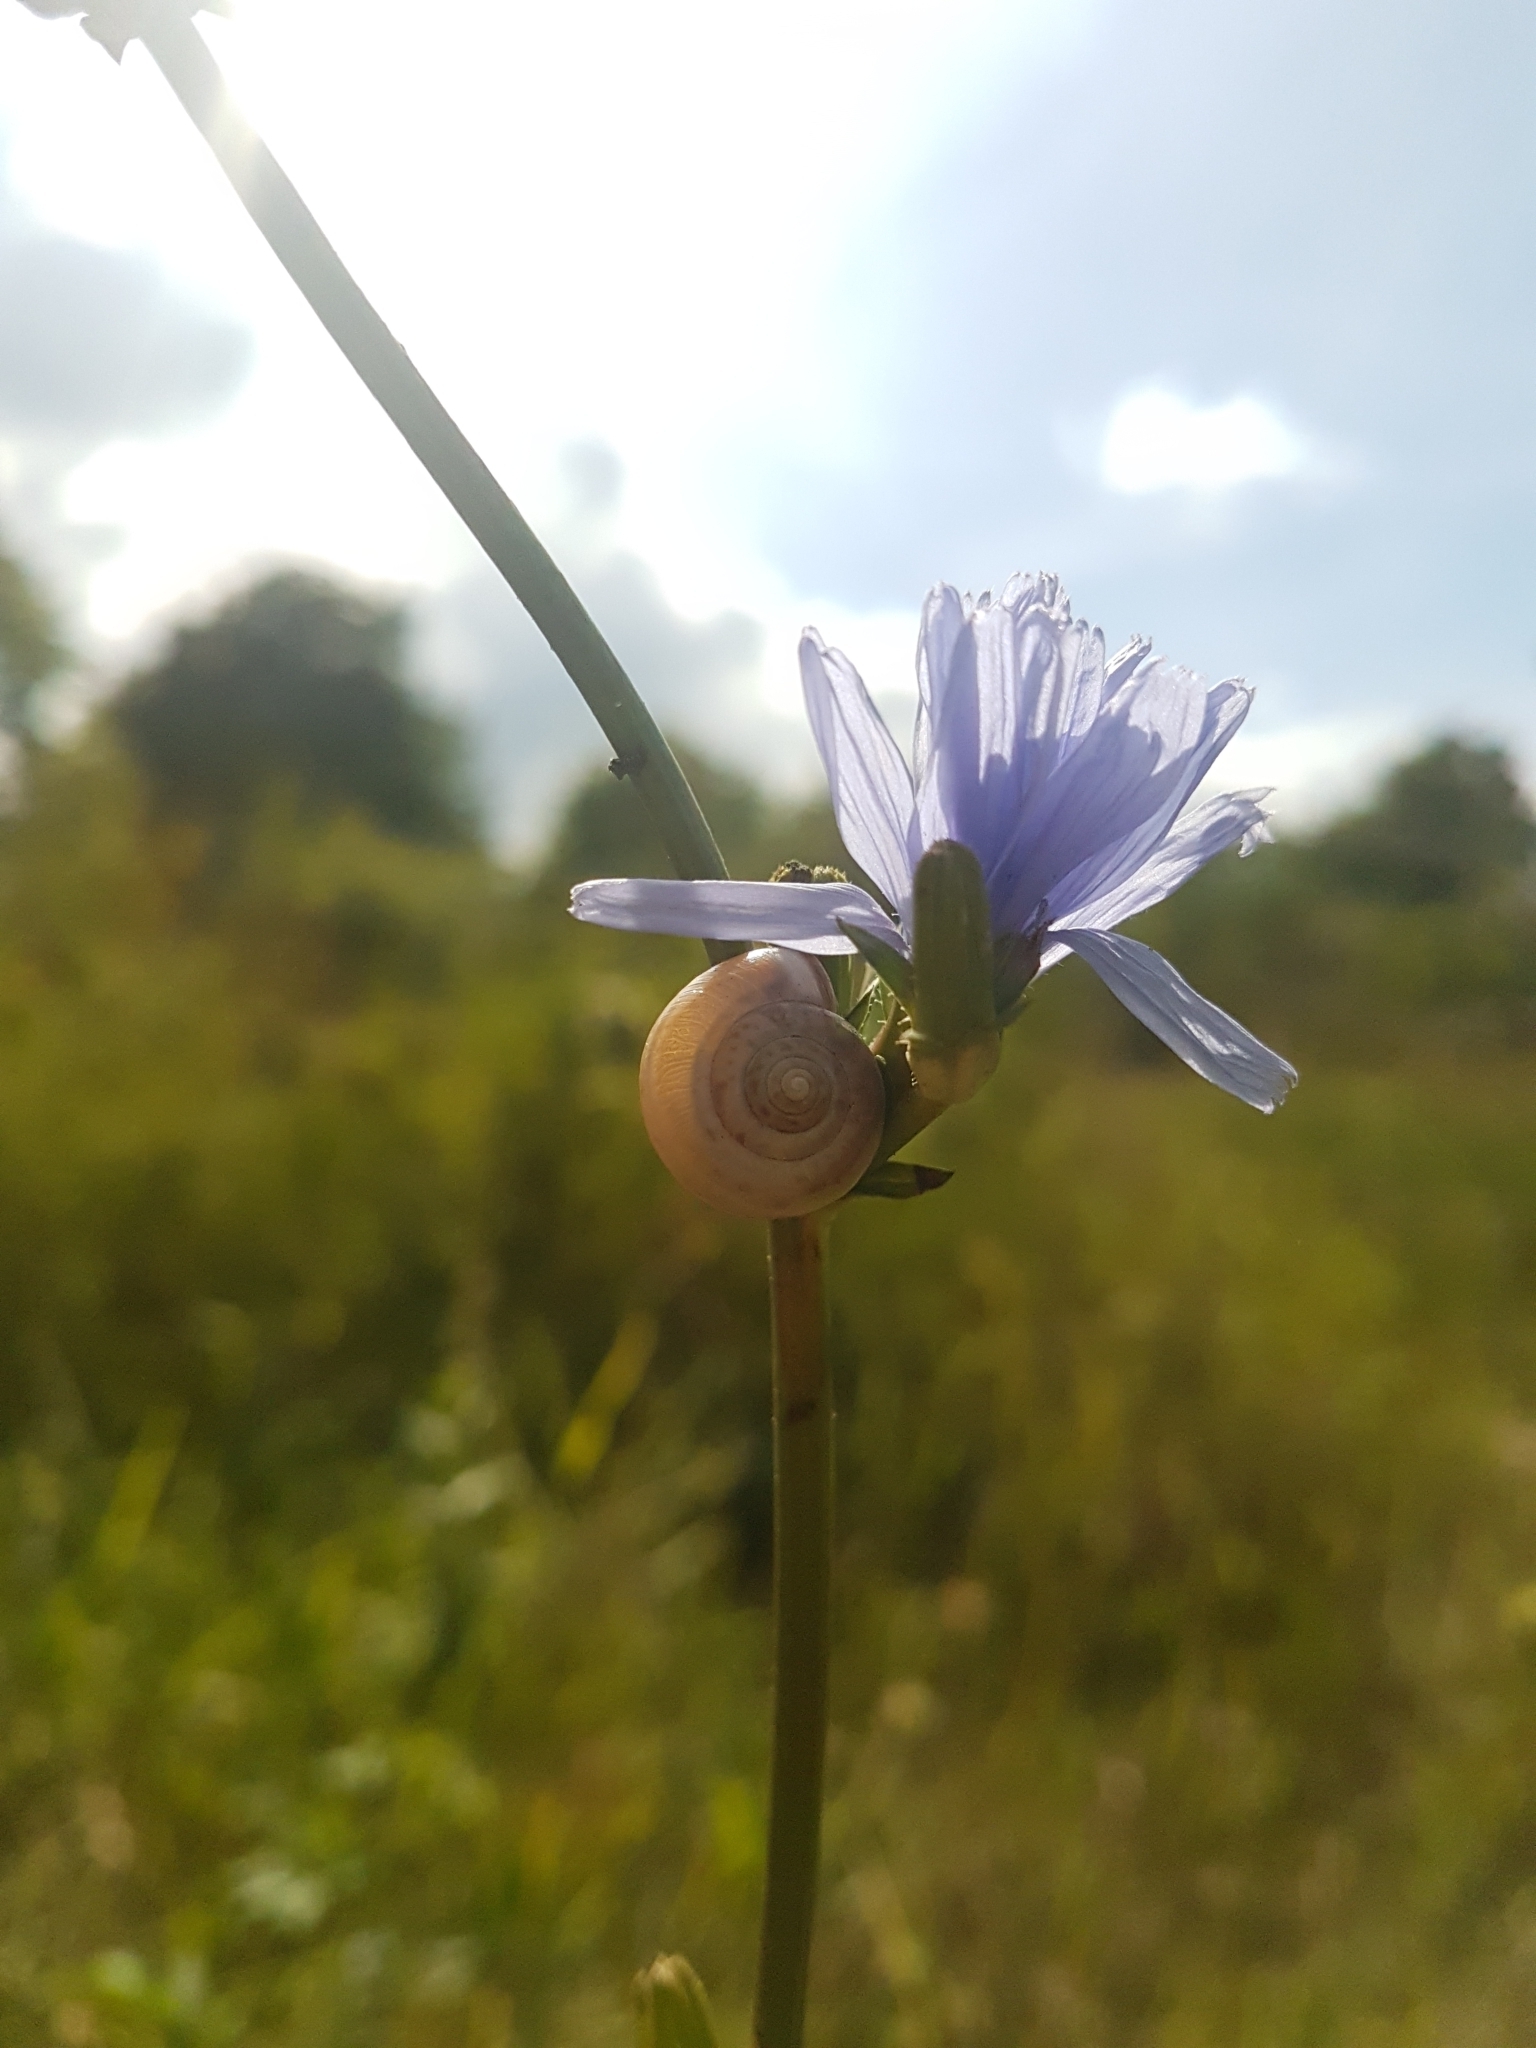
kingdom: Plantae
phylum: Tracheophyta
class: Magnoliopsida
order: Asterales
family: Asteraceae
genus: Cichorium
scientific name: Cichorium intybus
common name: Chicory
